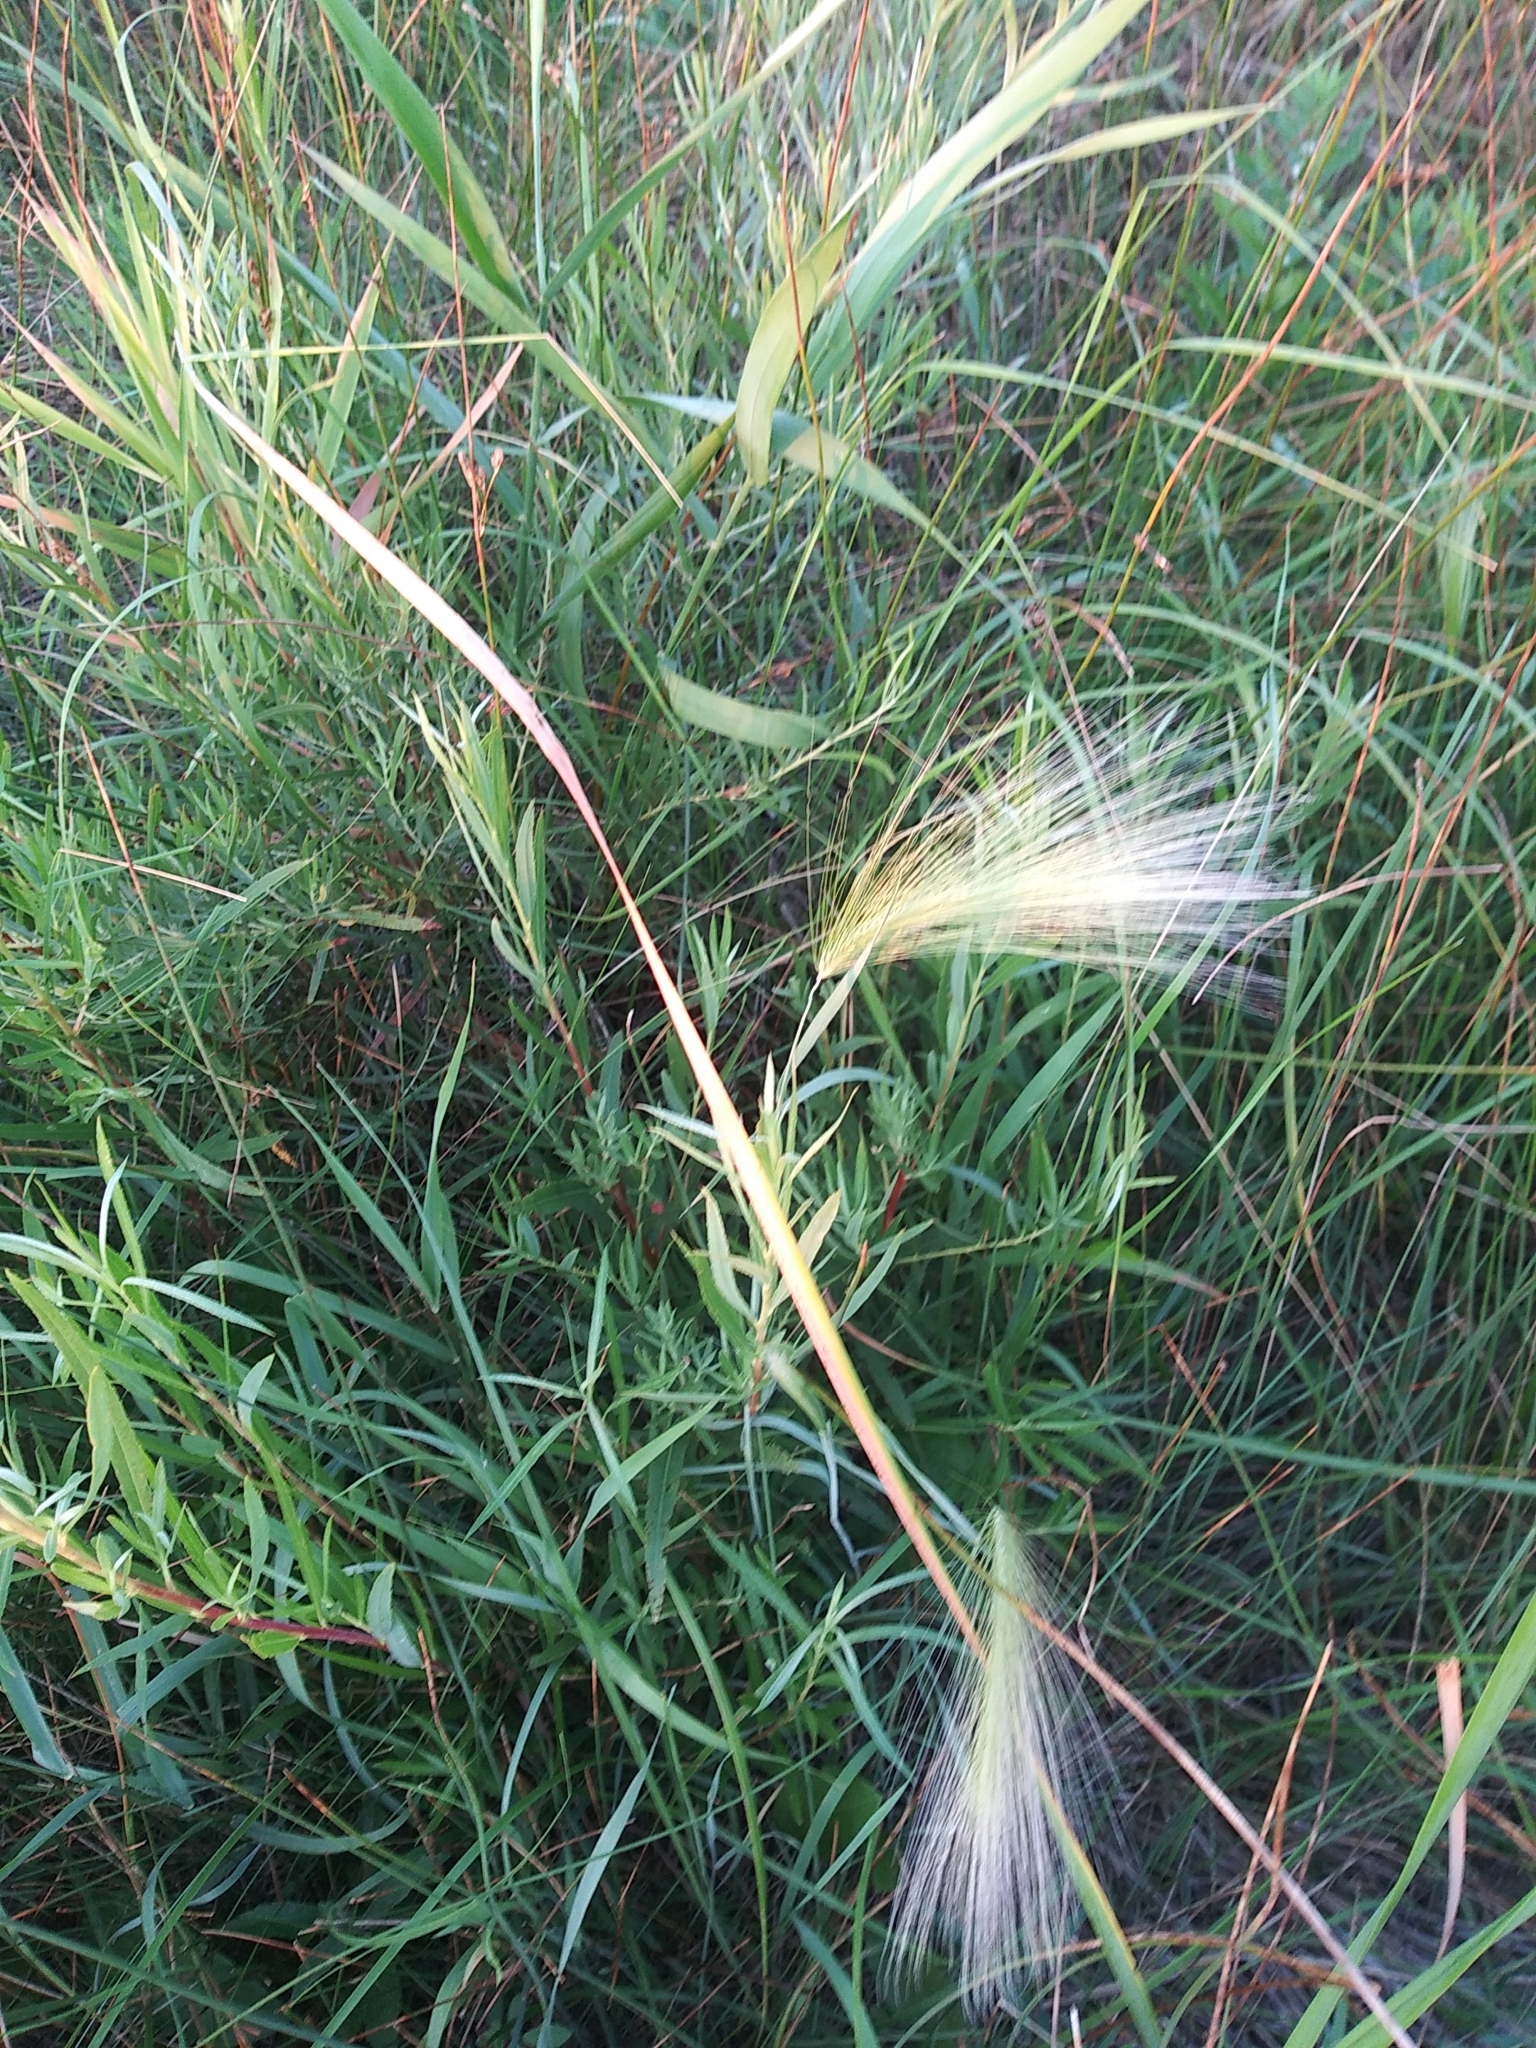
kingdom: Plantae
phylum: Tracheophyta
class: Liliopsida
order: Poales
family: Poaceae
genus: Hordeum
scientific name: Hordeum jubatum
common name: Foxtail barley
